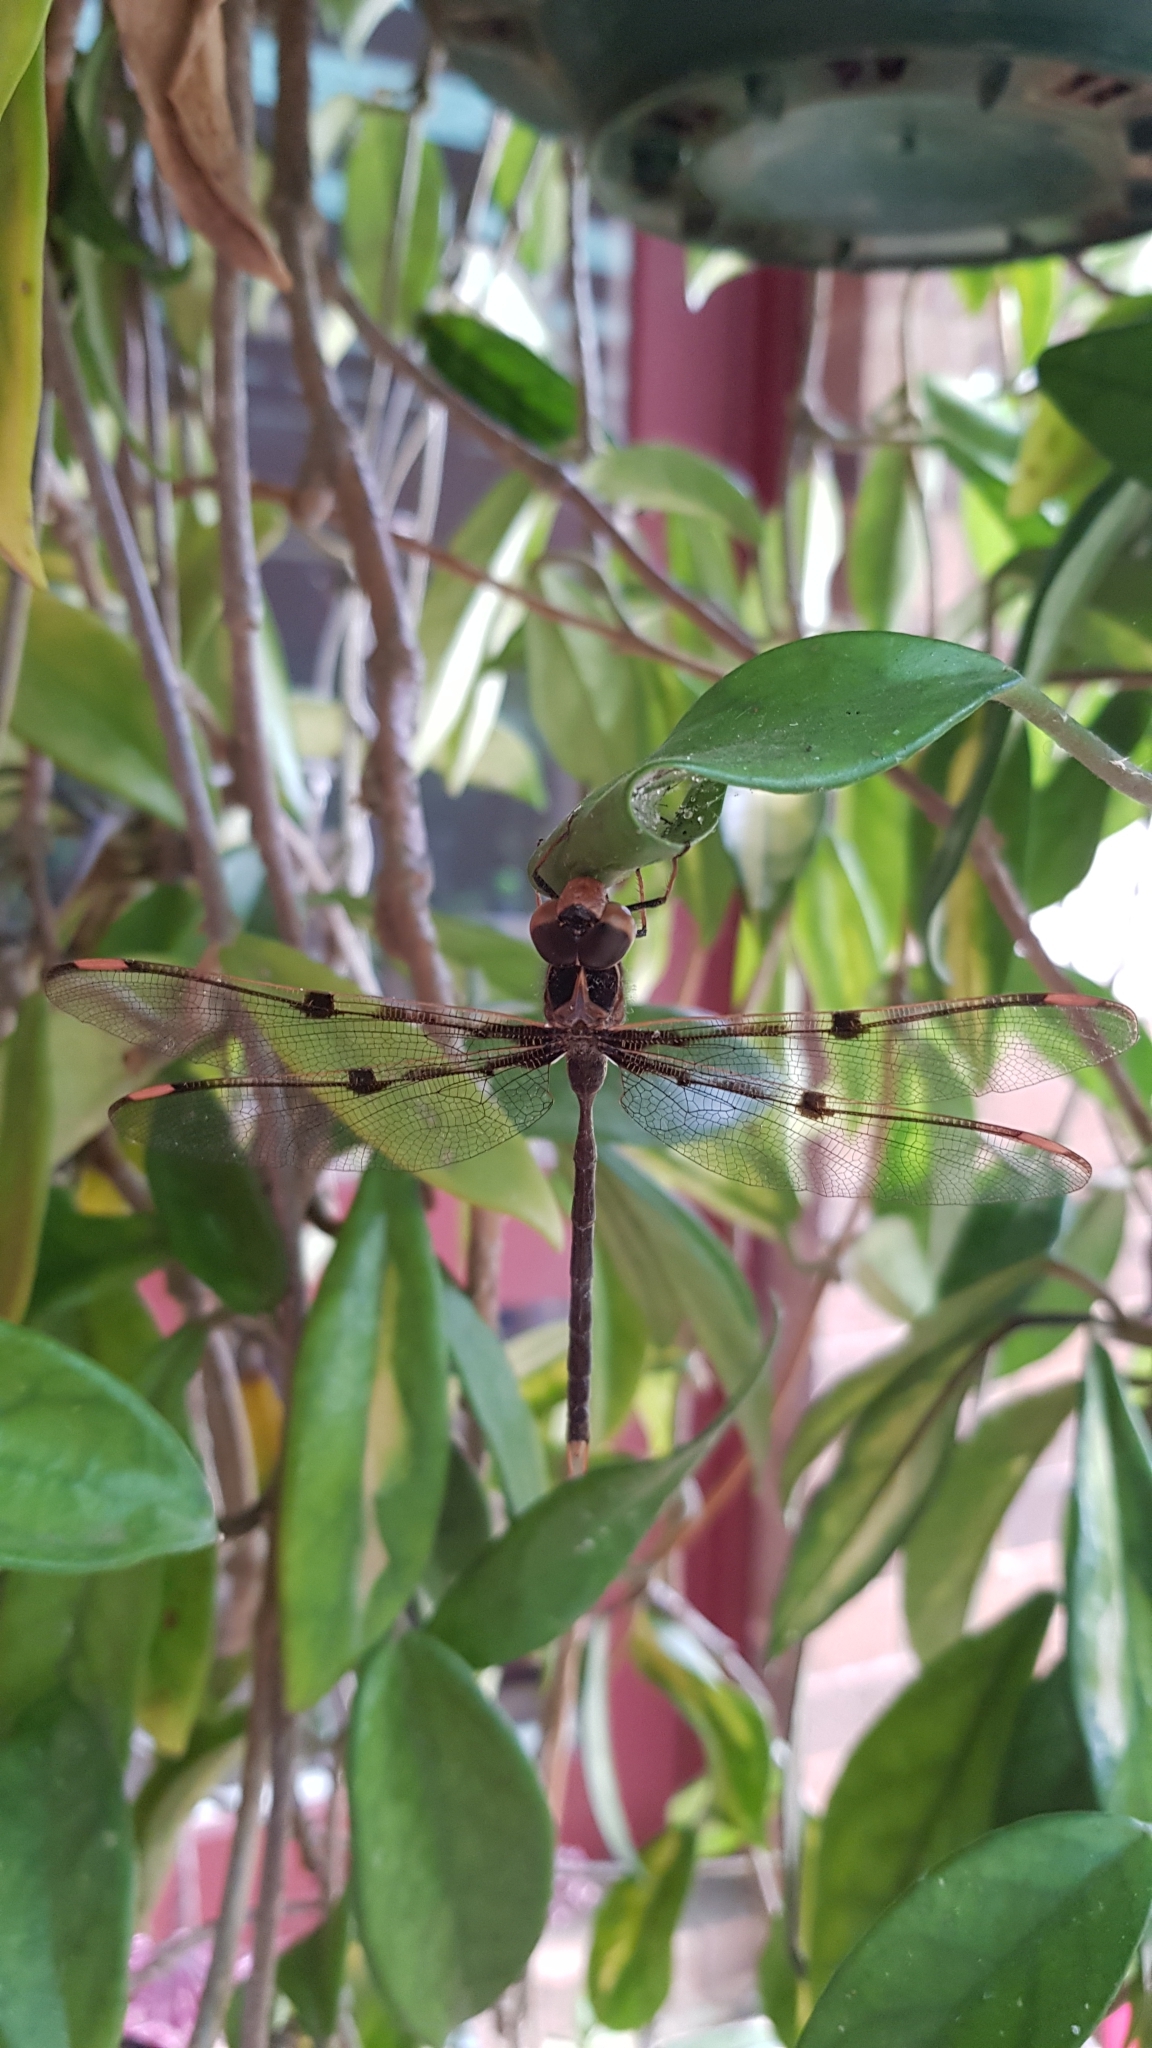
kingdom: Animalia
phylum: Arthropoda
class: Insecta
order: Odonata
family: Aeshnidae
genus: Telephlebia
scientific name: Telephlebia godeffroyi
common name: Eastern evening darner
